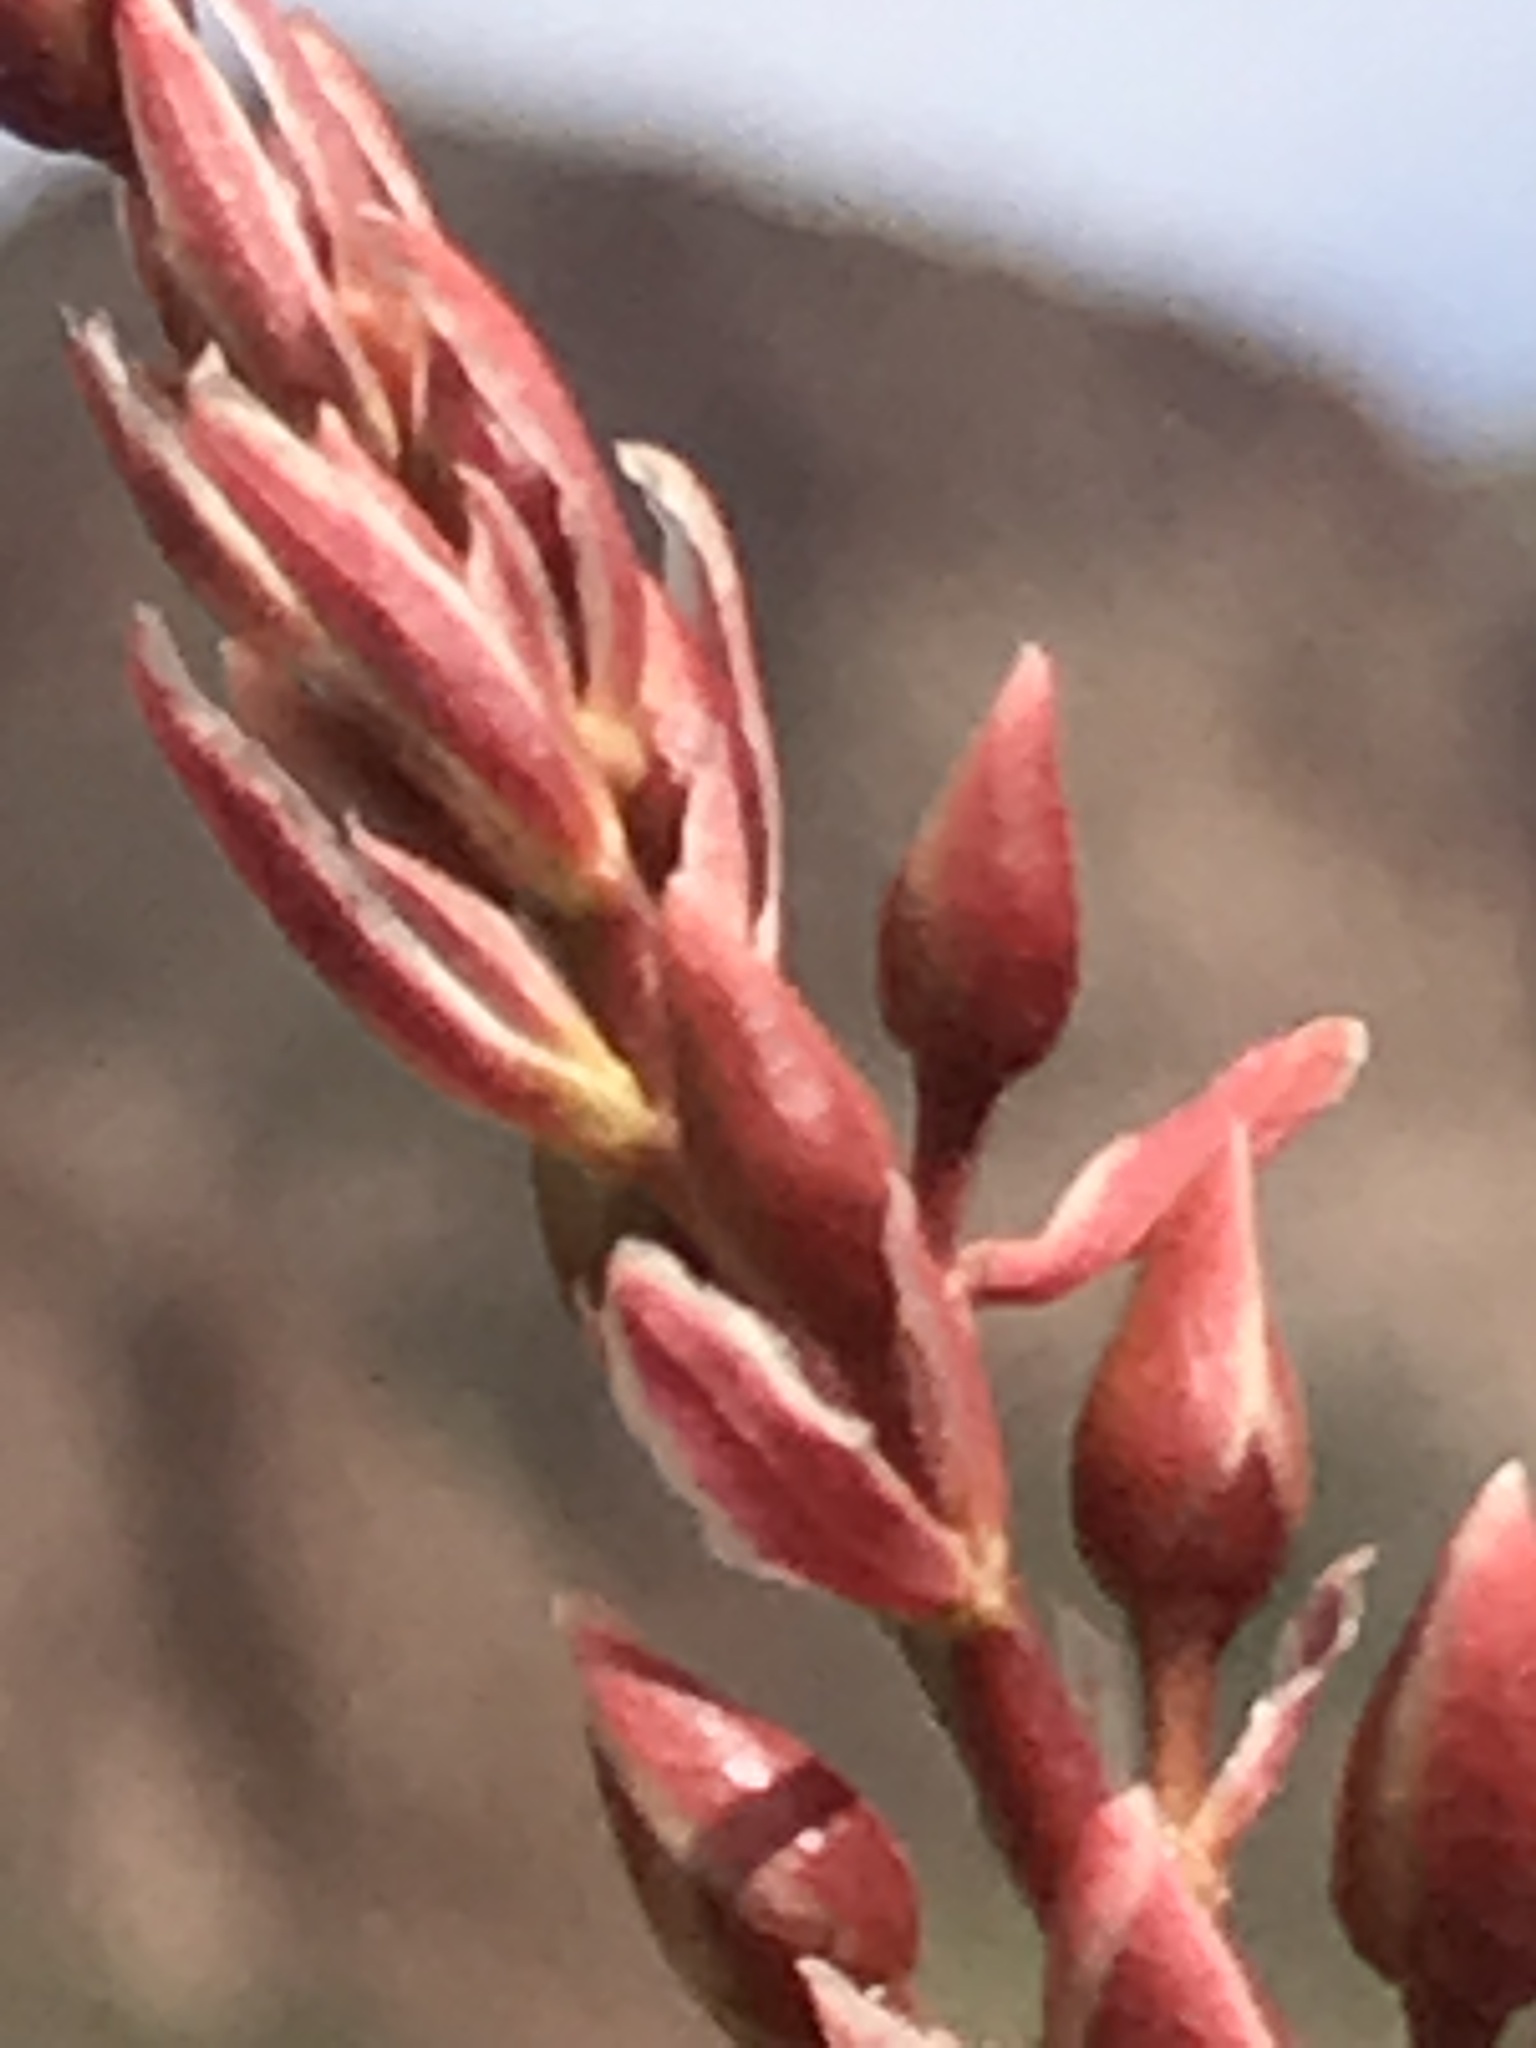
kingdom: Plantae
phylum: Tracheophyta
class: Magnoliopsida
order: Ericales
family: Fouquieriaceae
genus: Fouquieria
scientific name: Fouquieria splendens
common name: Vine-cactus
